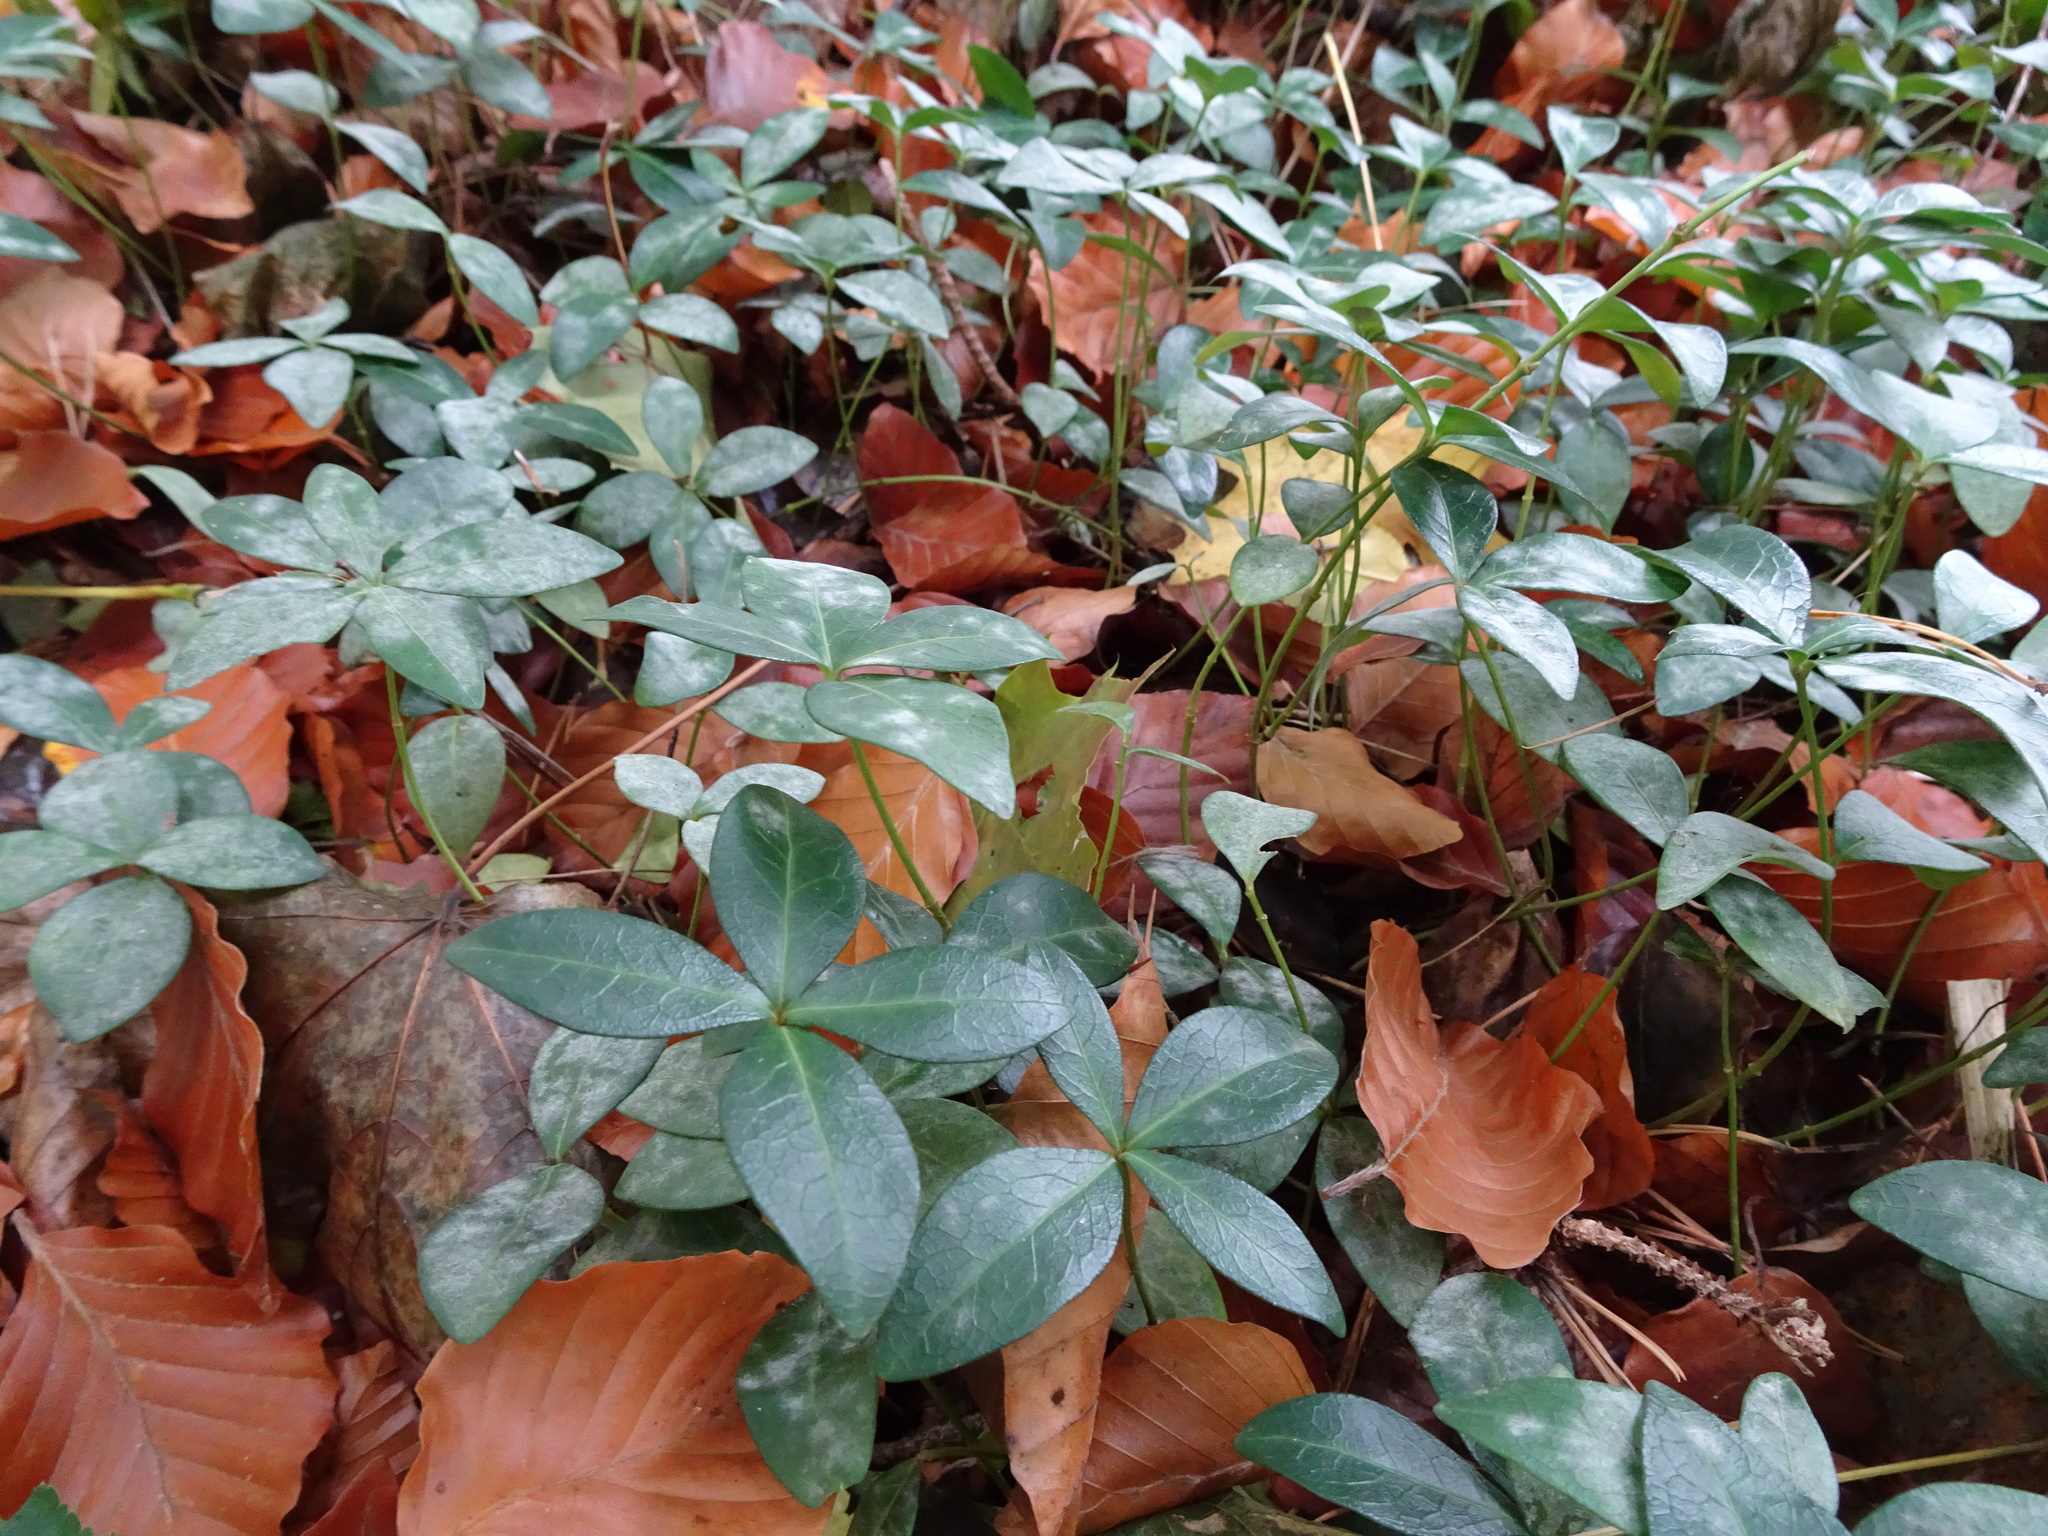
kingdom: Plantae
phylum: Tracheophyta
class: Magnoliopsida
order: Gentianales
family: Apocynaceae
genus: Vinca
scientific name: Vinca minor
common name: Lesser periwinkle
